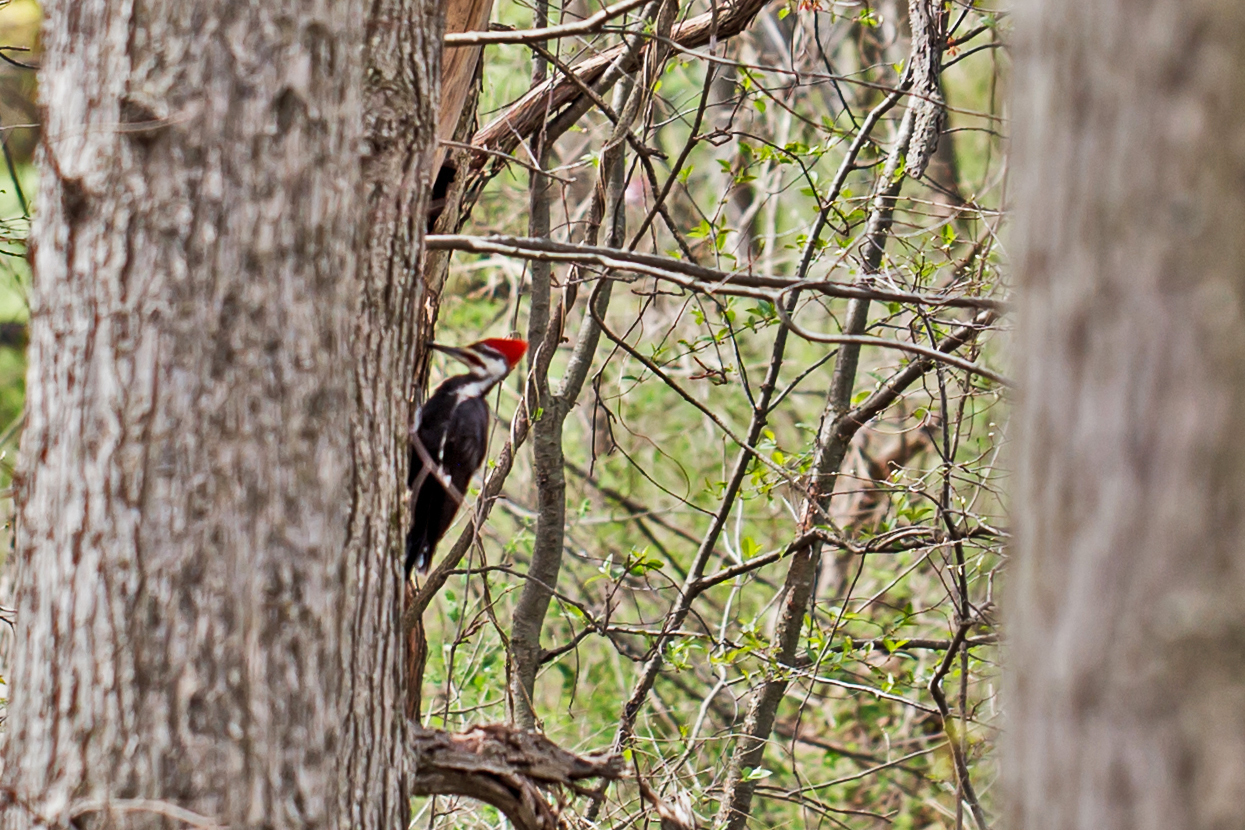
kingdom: Animalia
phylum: Chordata
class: Aves
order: Piciformes
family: Picidae
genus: Dryocopus
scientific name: Dryocopus pileatus
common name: Pileated woodpecker
